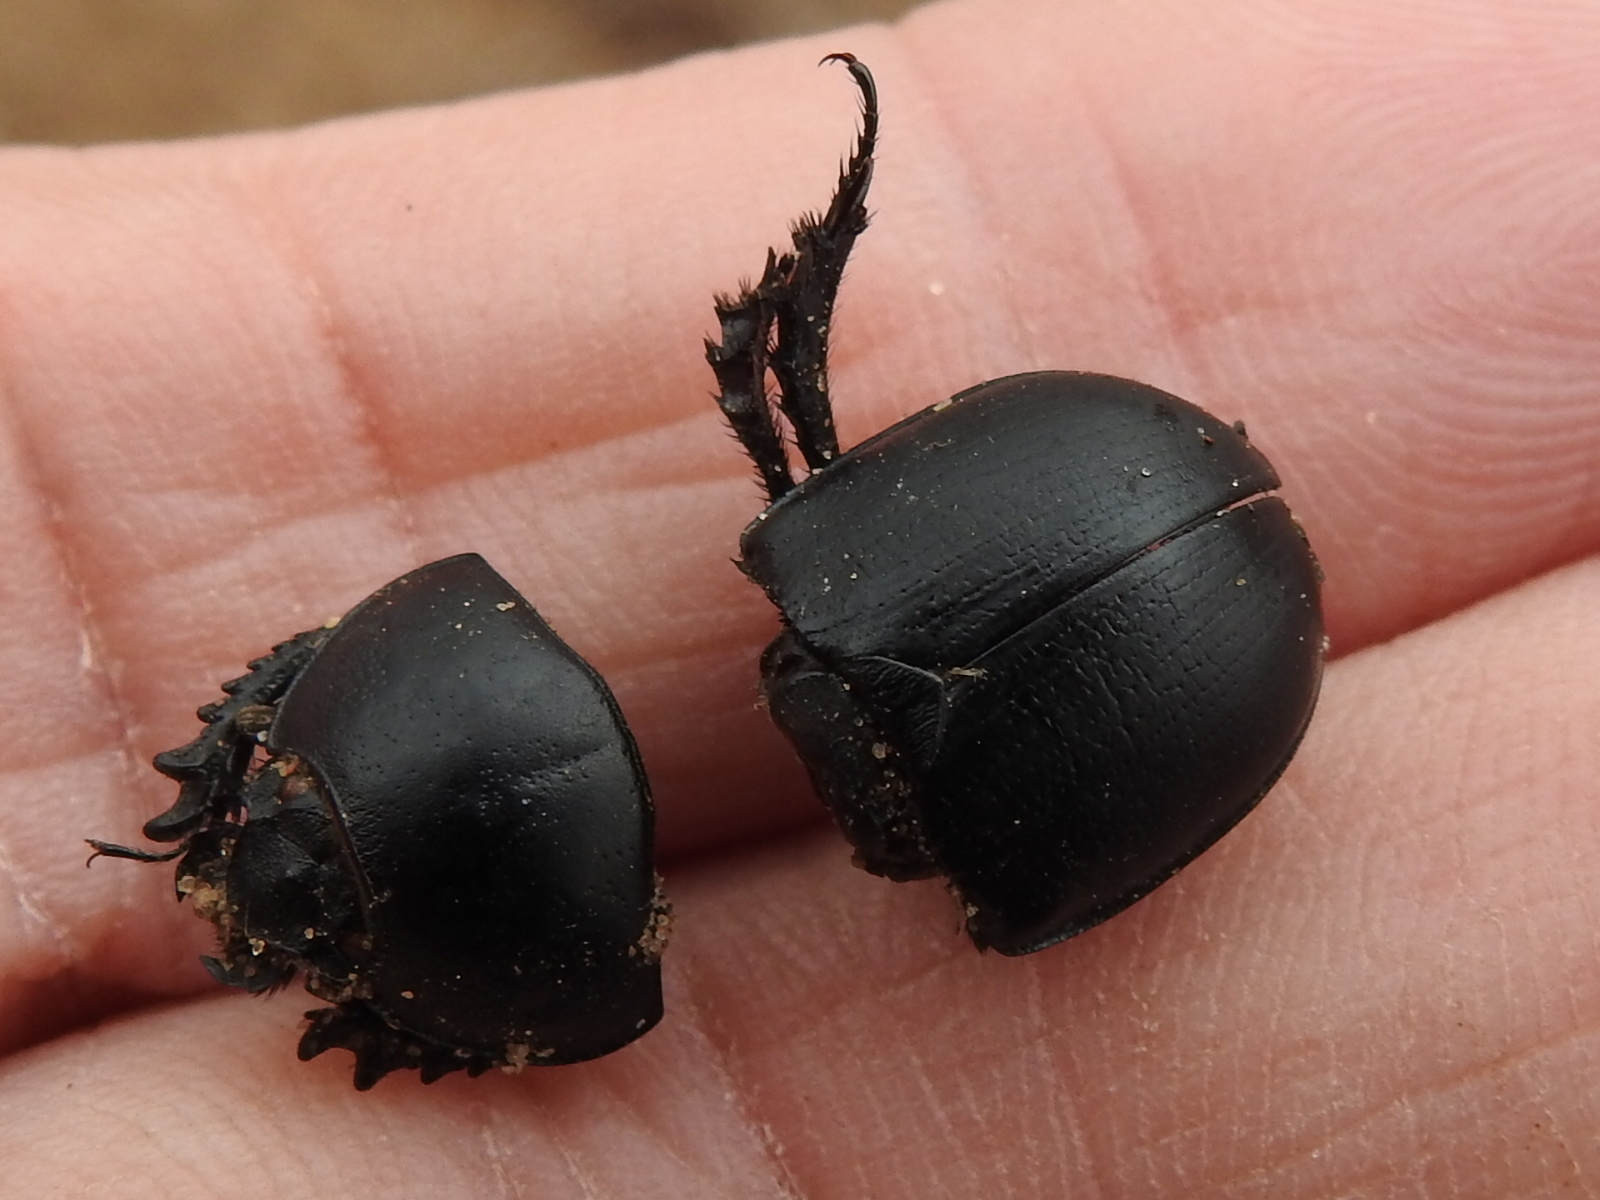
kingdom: Animalia
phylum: Arthropoda
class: Insecta
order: Coleoptera
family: Geotrupidae
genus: Geohowdenius
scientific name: Geohowdenius opacus
